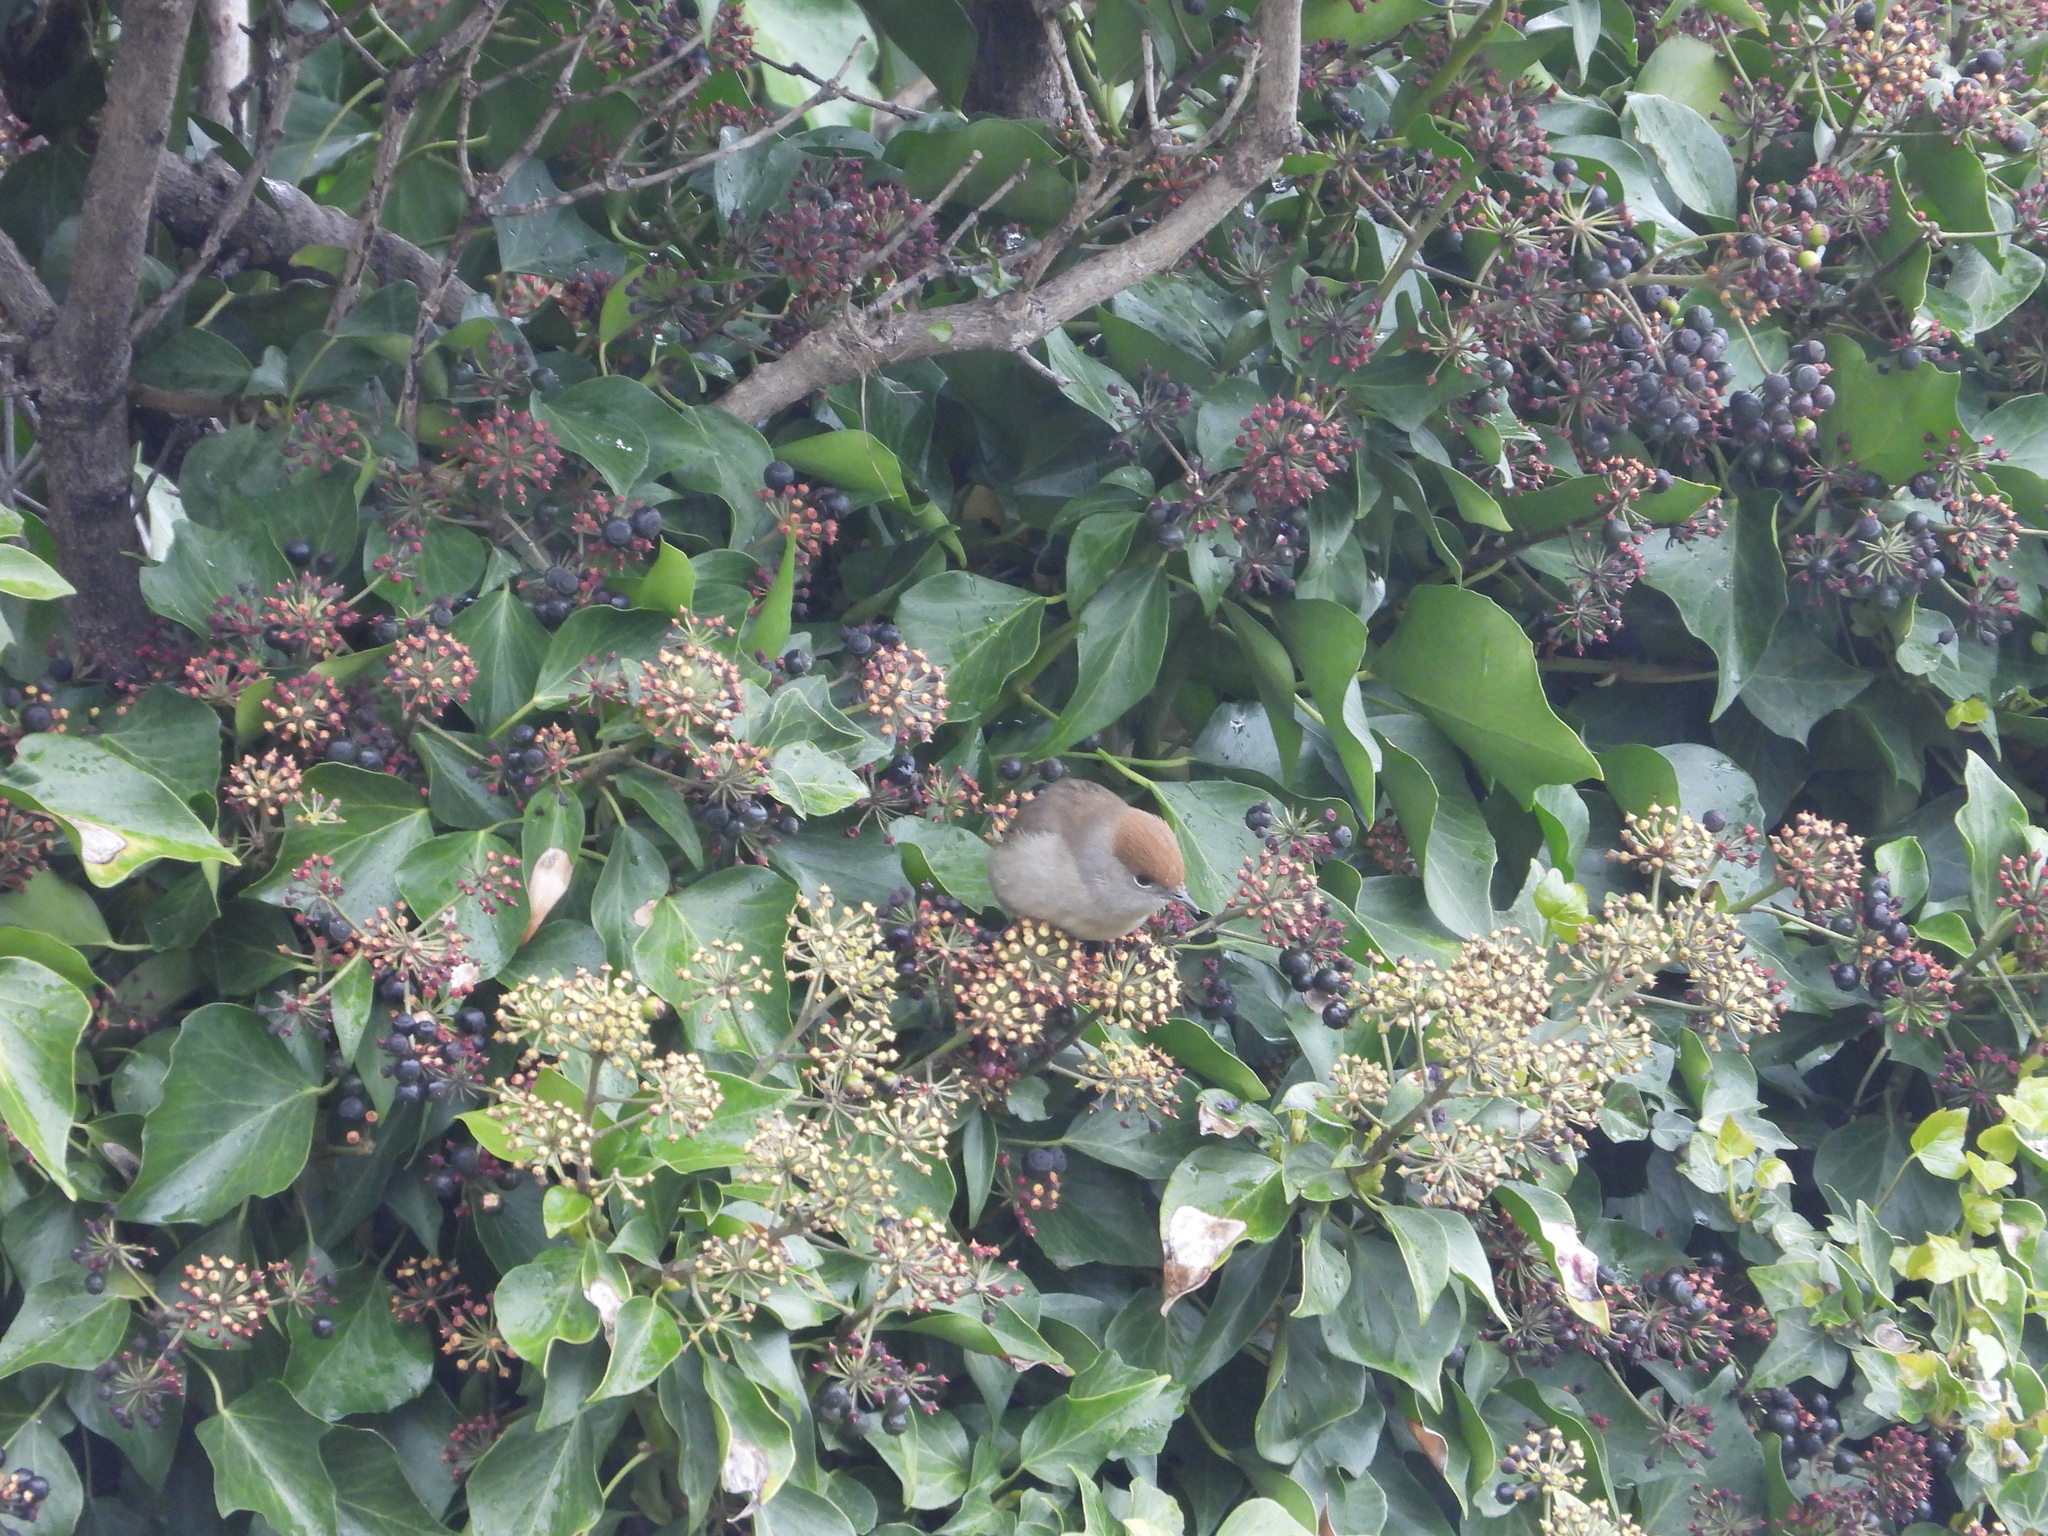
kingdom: Animalia
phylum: Chordata
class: Aves
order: Passeriformes
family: Sylviidae
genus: Sylvia
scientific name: Sylvia atricapilla
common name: Eurasian blackcap
